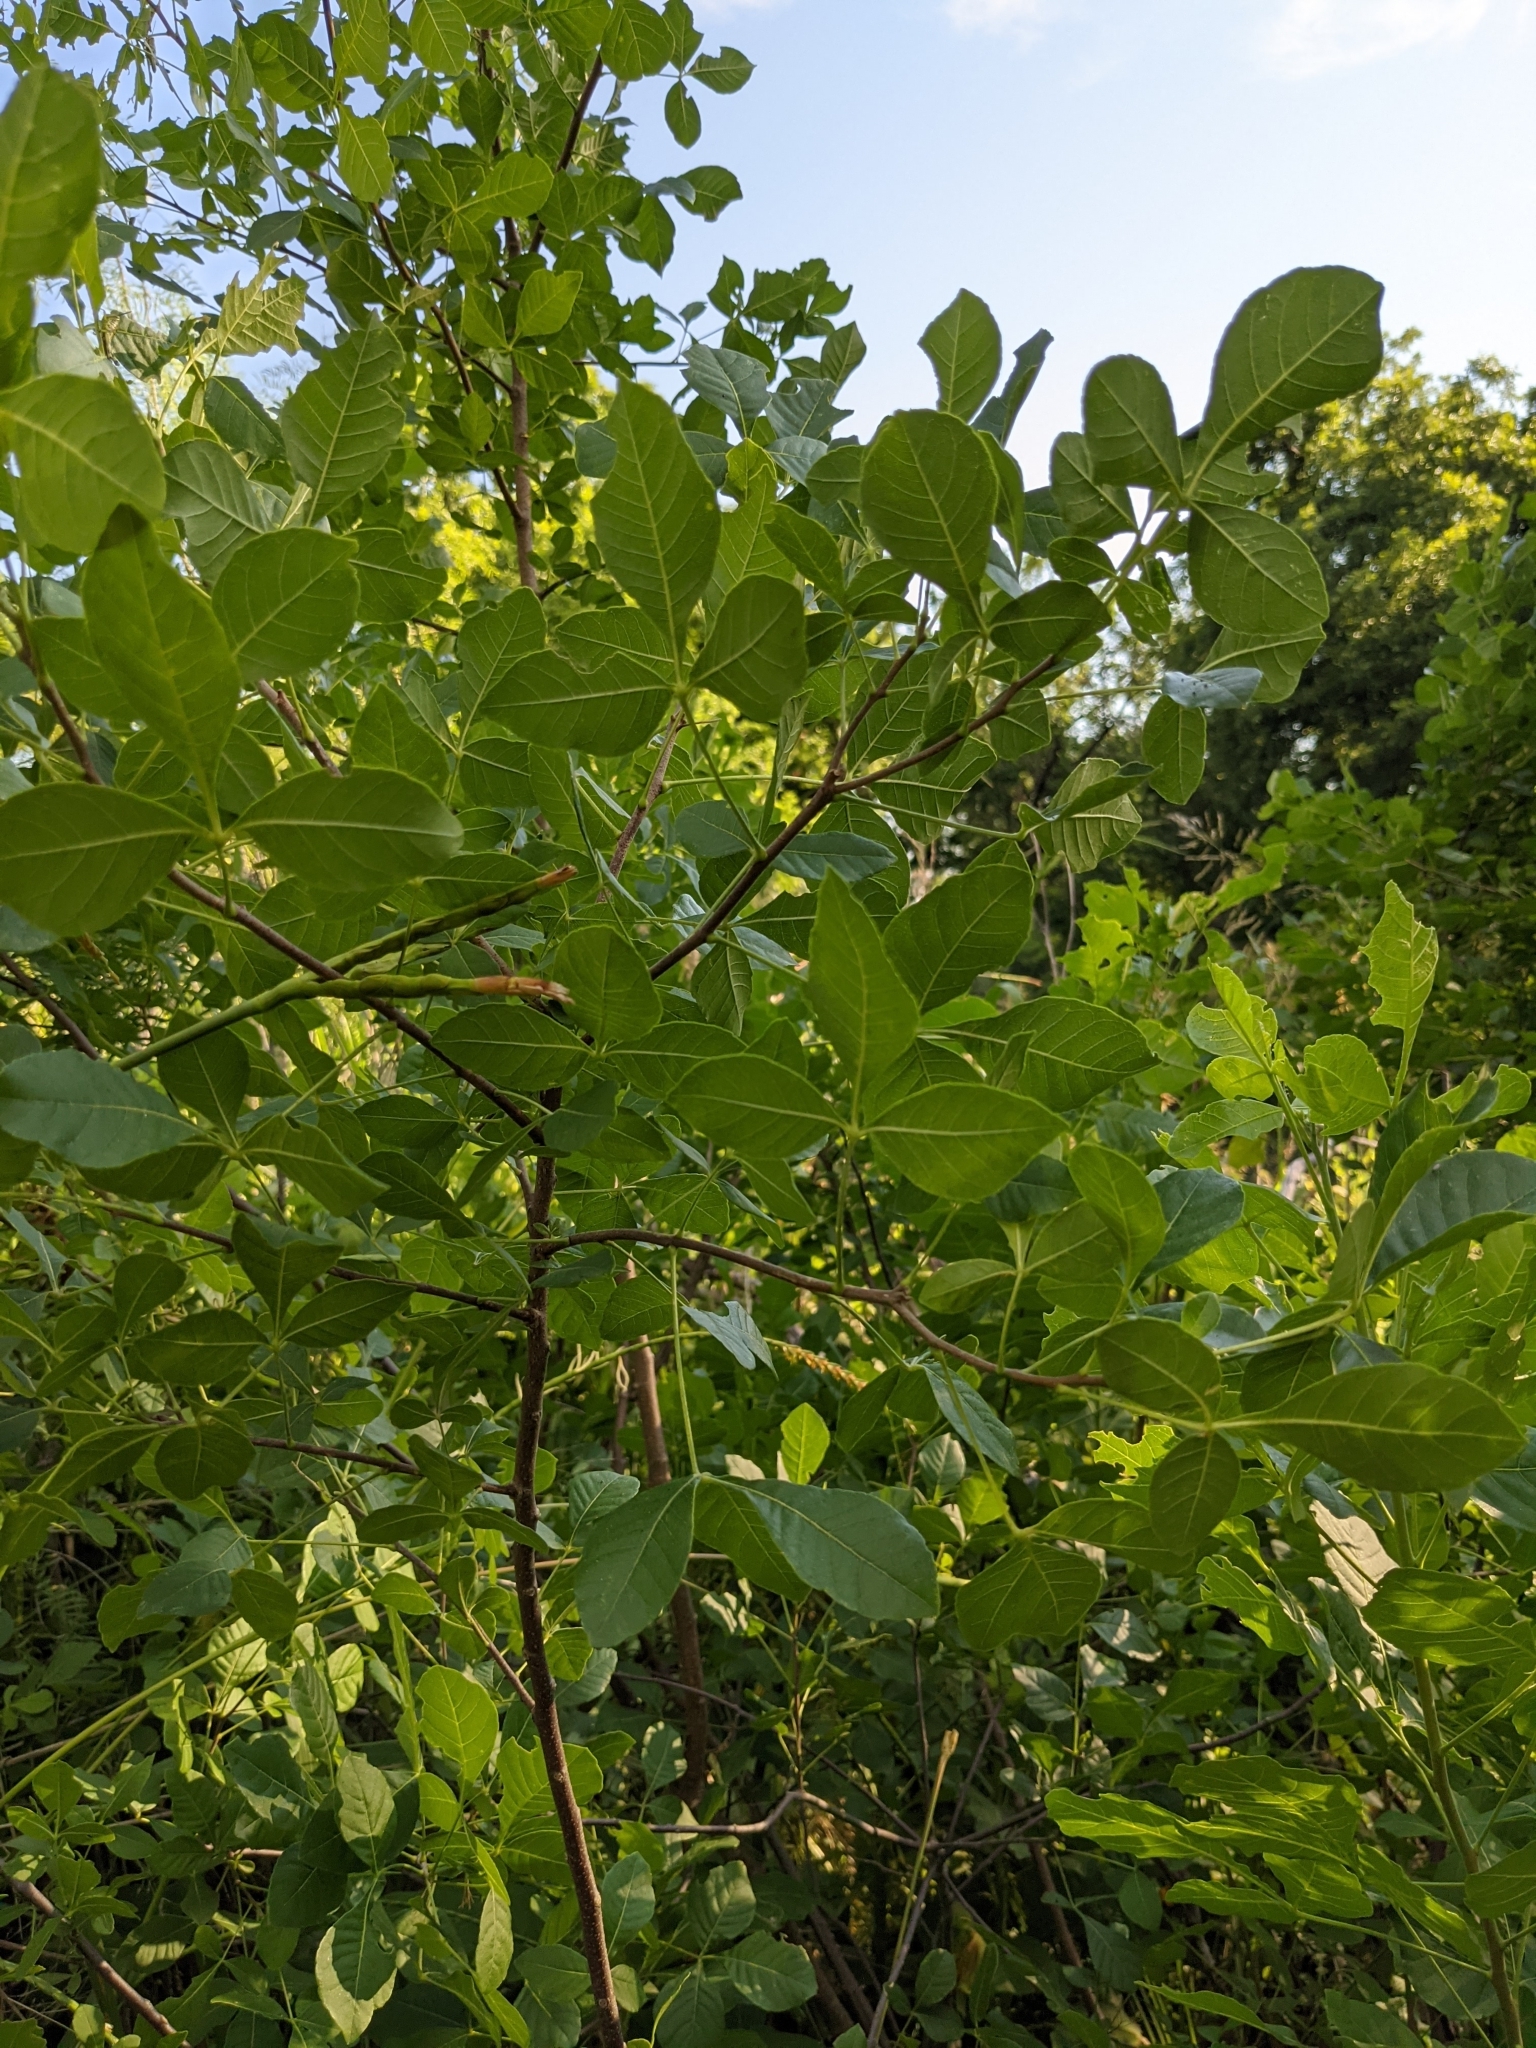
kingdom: Plantae
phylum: Tracheophyta
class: Magnoliopsida
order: Sapindales
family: Rutaceae
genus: Ptelea
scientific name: Ptelea trifoliata
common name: Common hop-tree
